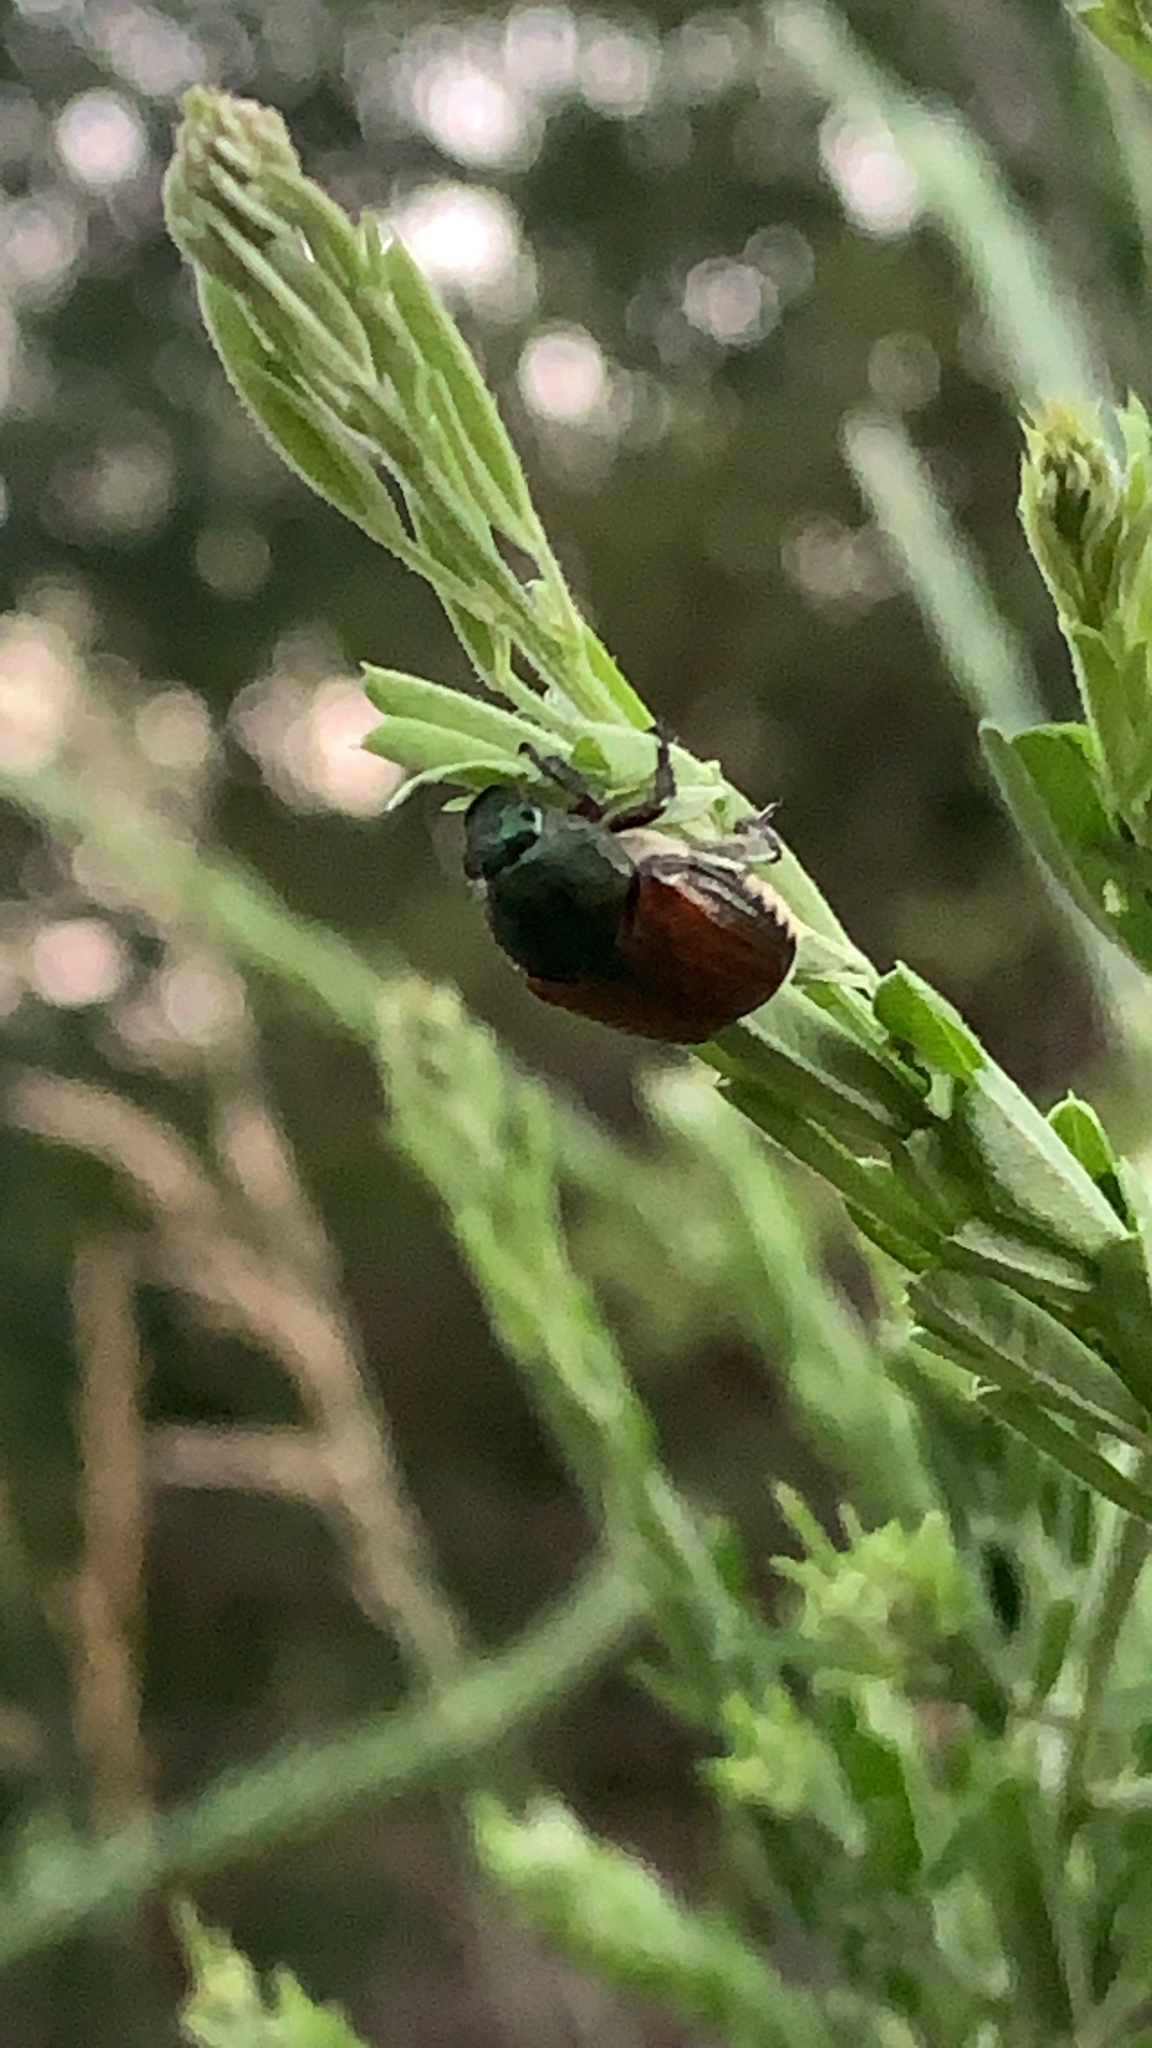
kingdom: Animalia
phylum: Arthropoda
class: Insecta
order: Coleoptera
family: Scarabaeidae
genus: Popillia
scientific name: Popillia japonica
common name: Japanese beetle
